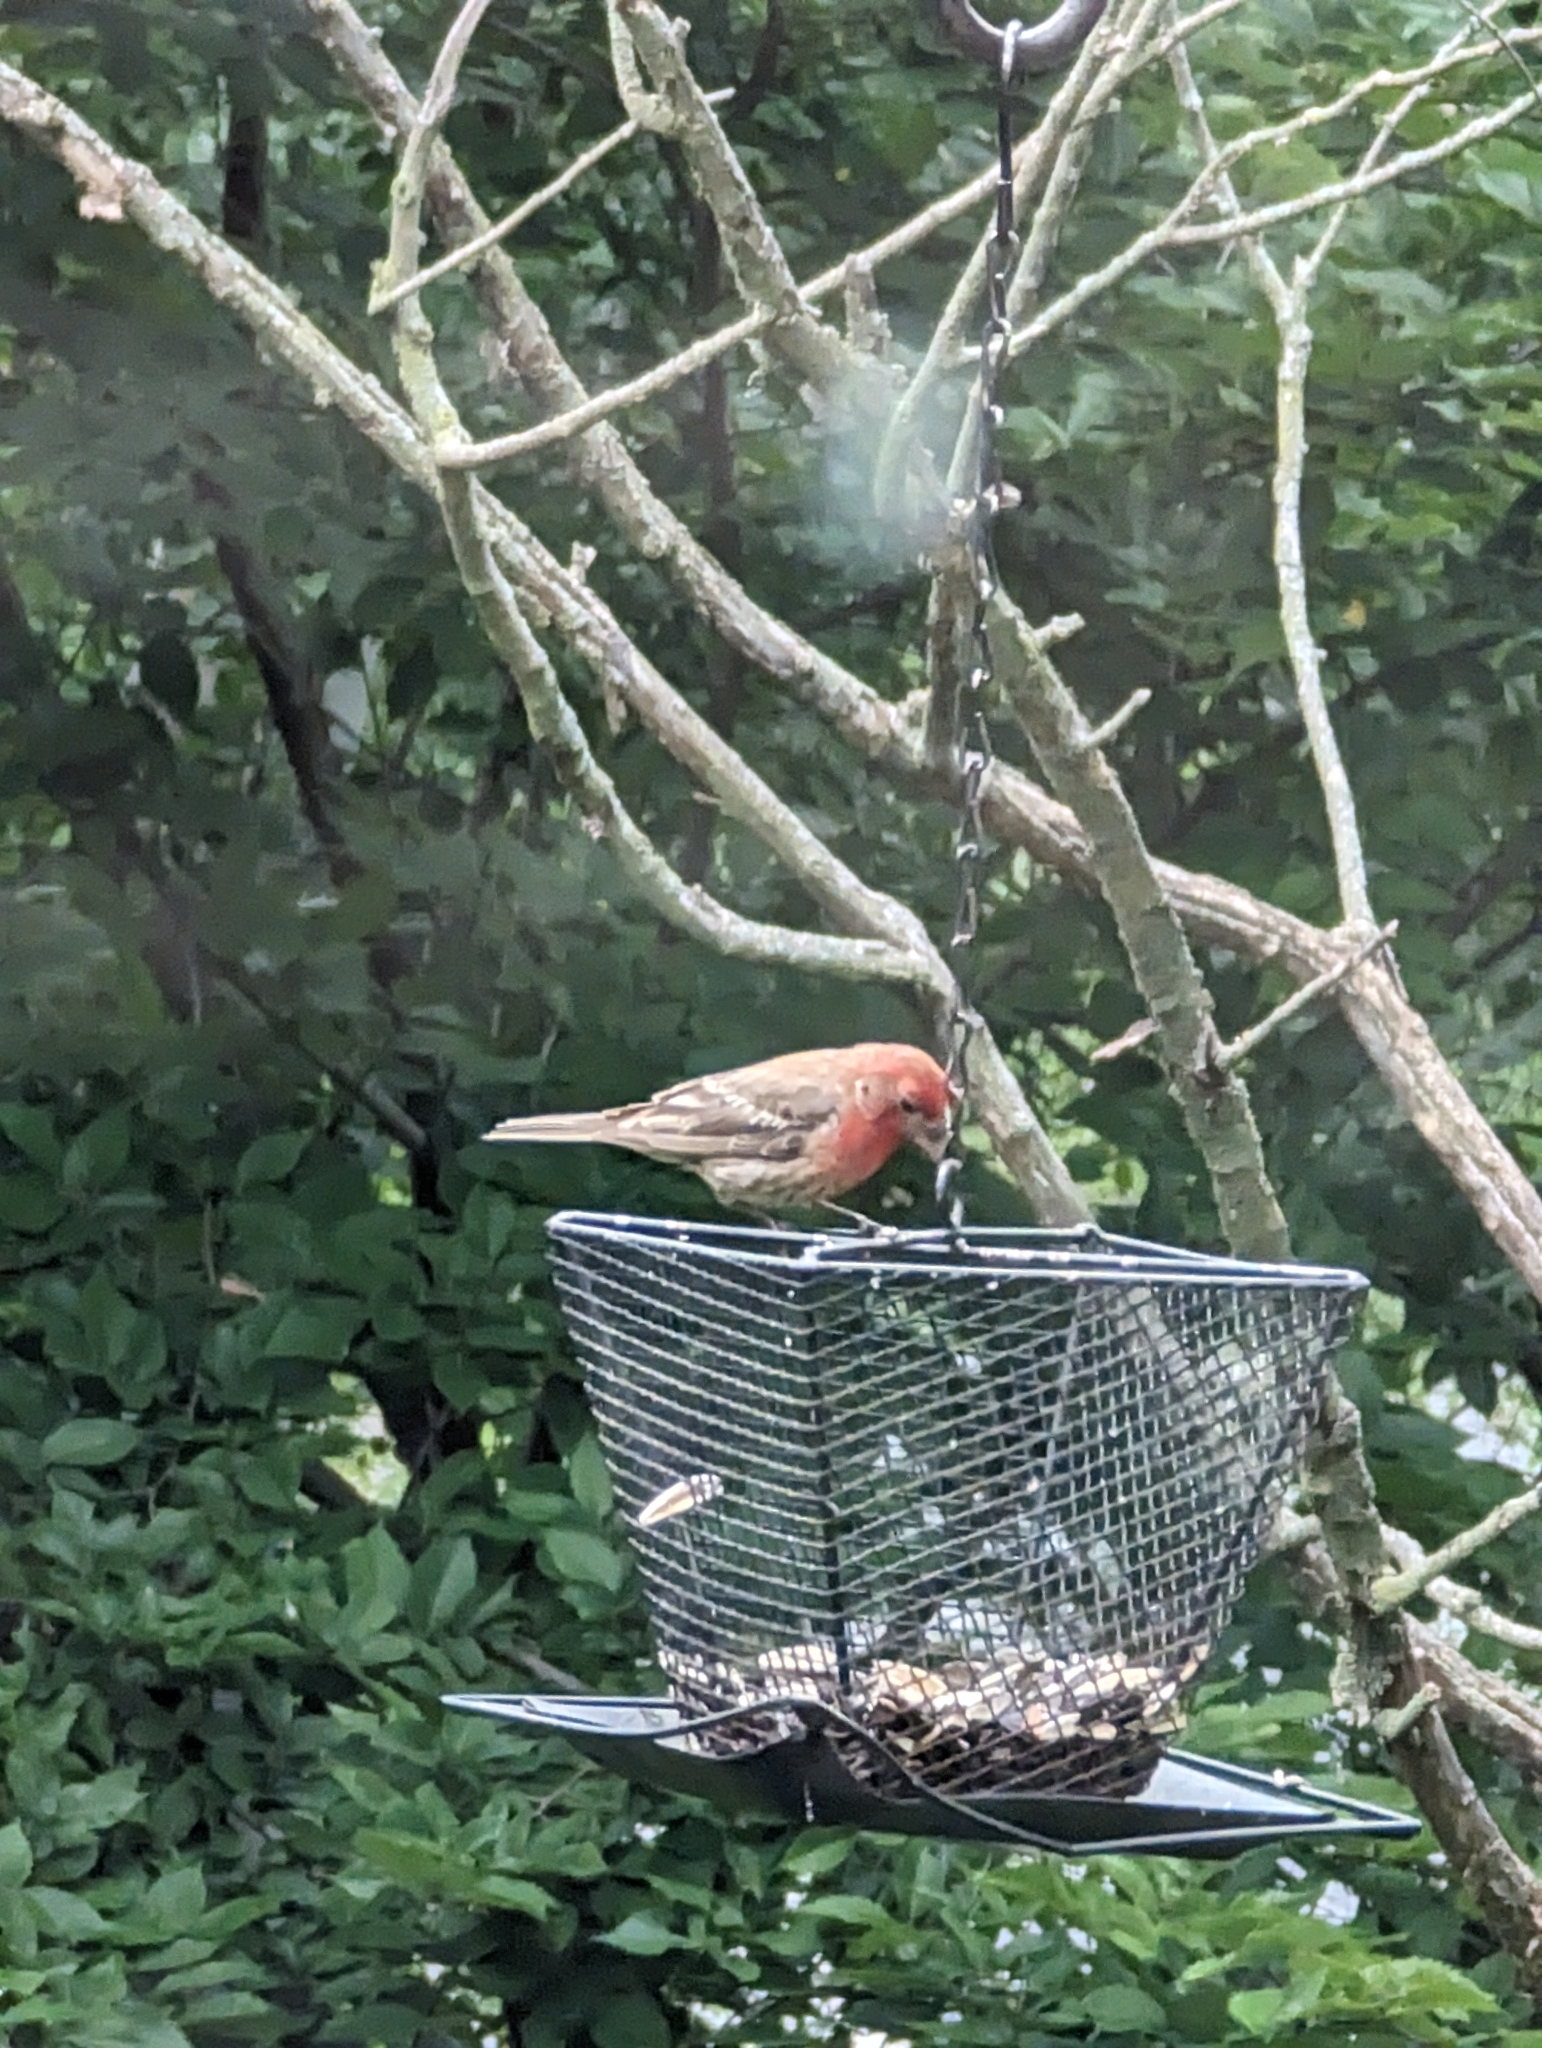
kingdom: Animalia
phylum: Chordata
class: Aves
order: Passeriformes
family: Fringillidae
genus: Haemorhous
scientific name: Haemorhous mexicanus
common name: House finch
